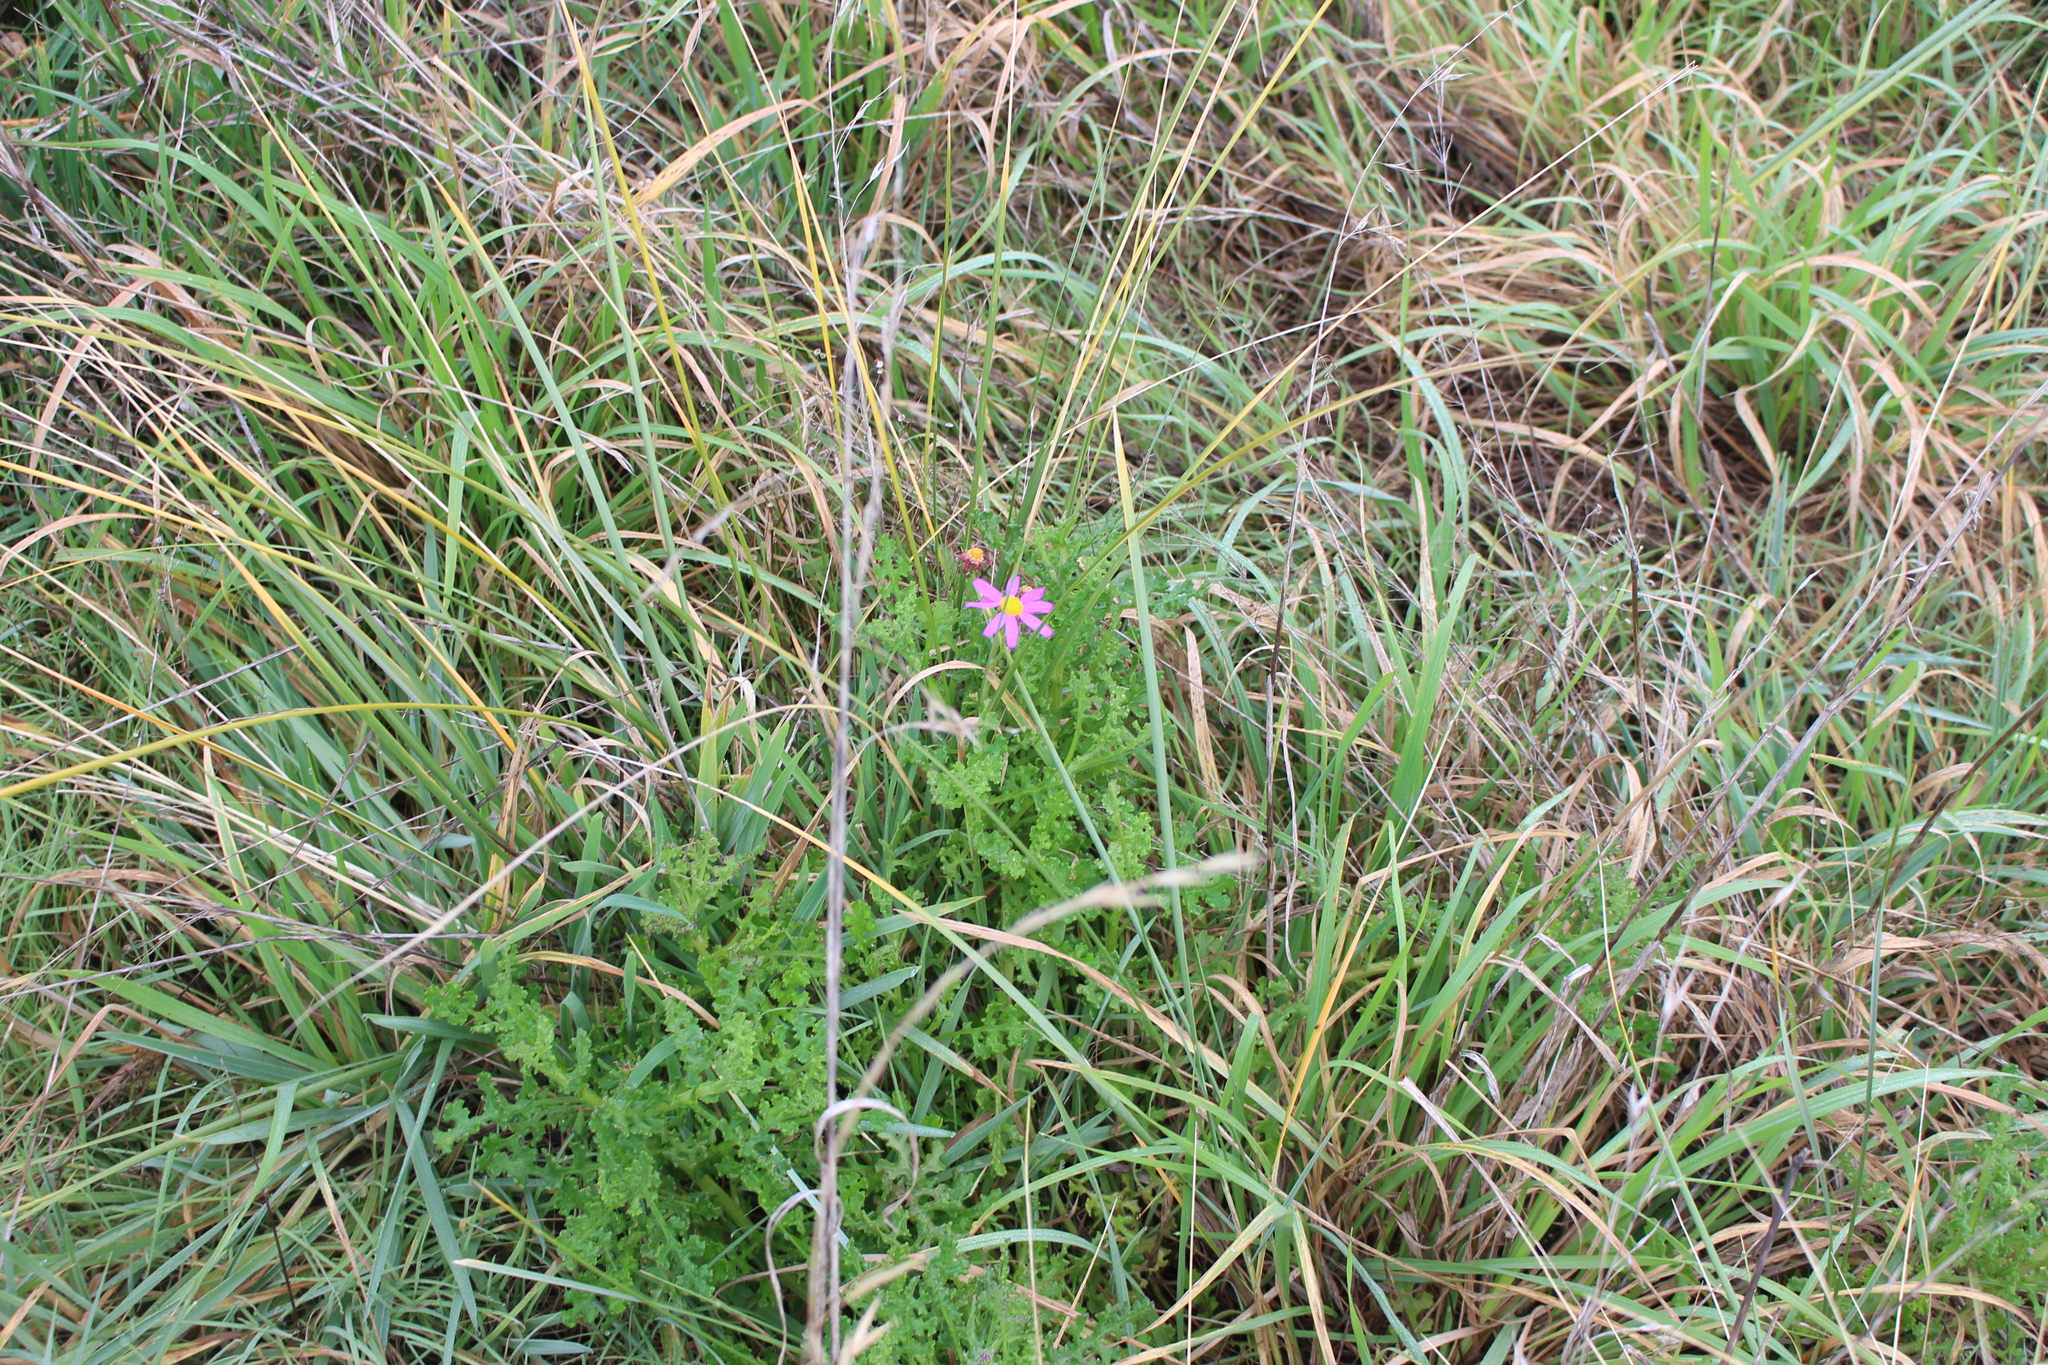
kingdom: Plantae
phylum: Tracheophyta
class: Magnoliopsida
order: Asterales
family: Asteraceae
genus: Senecio
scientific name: Senecio elegans
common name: Purple groundsel
